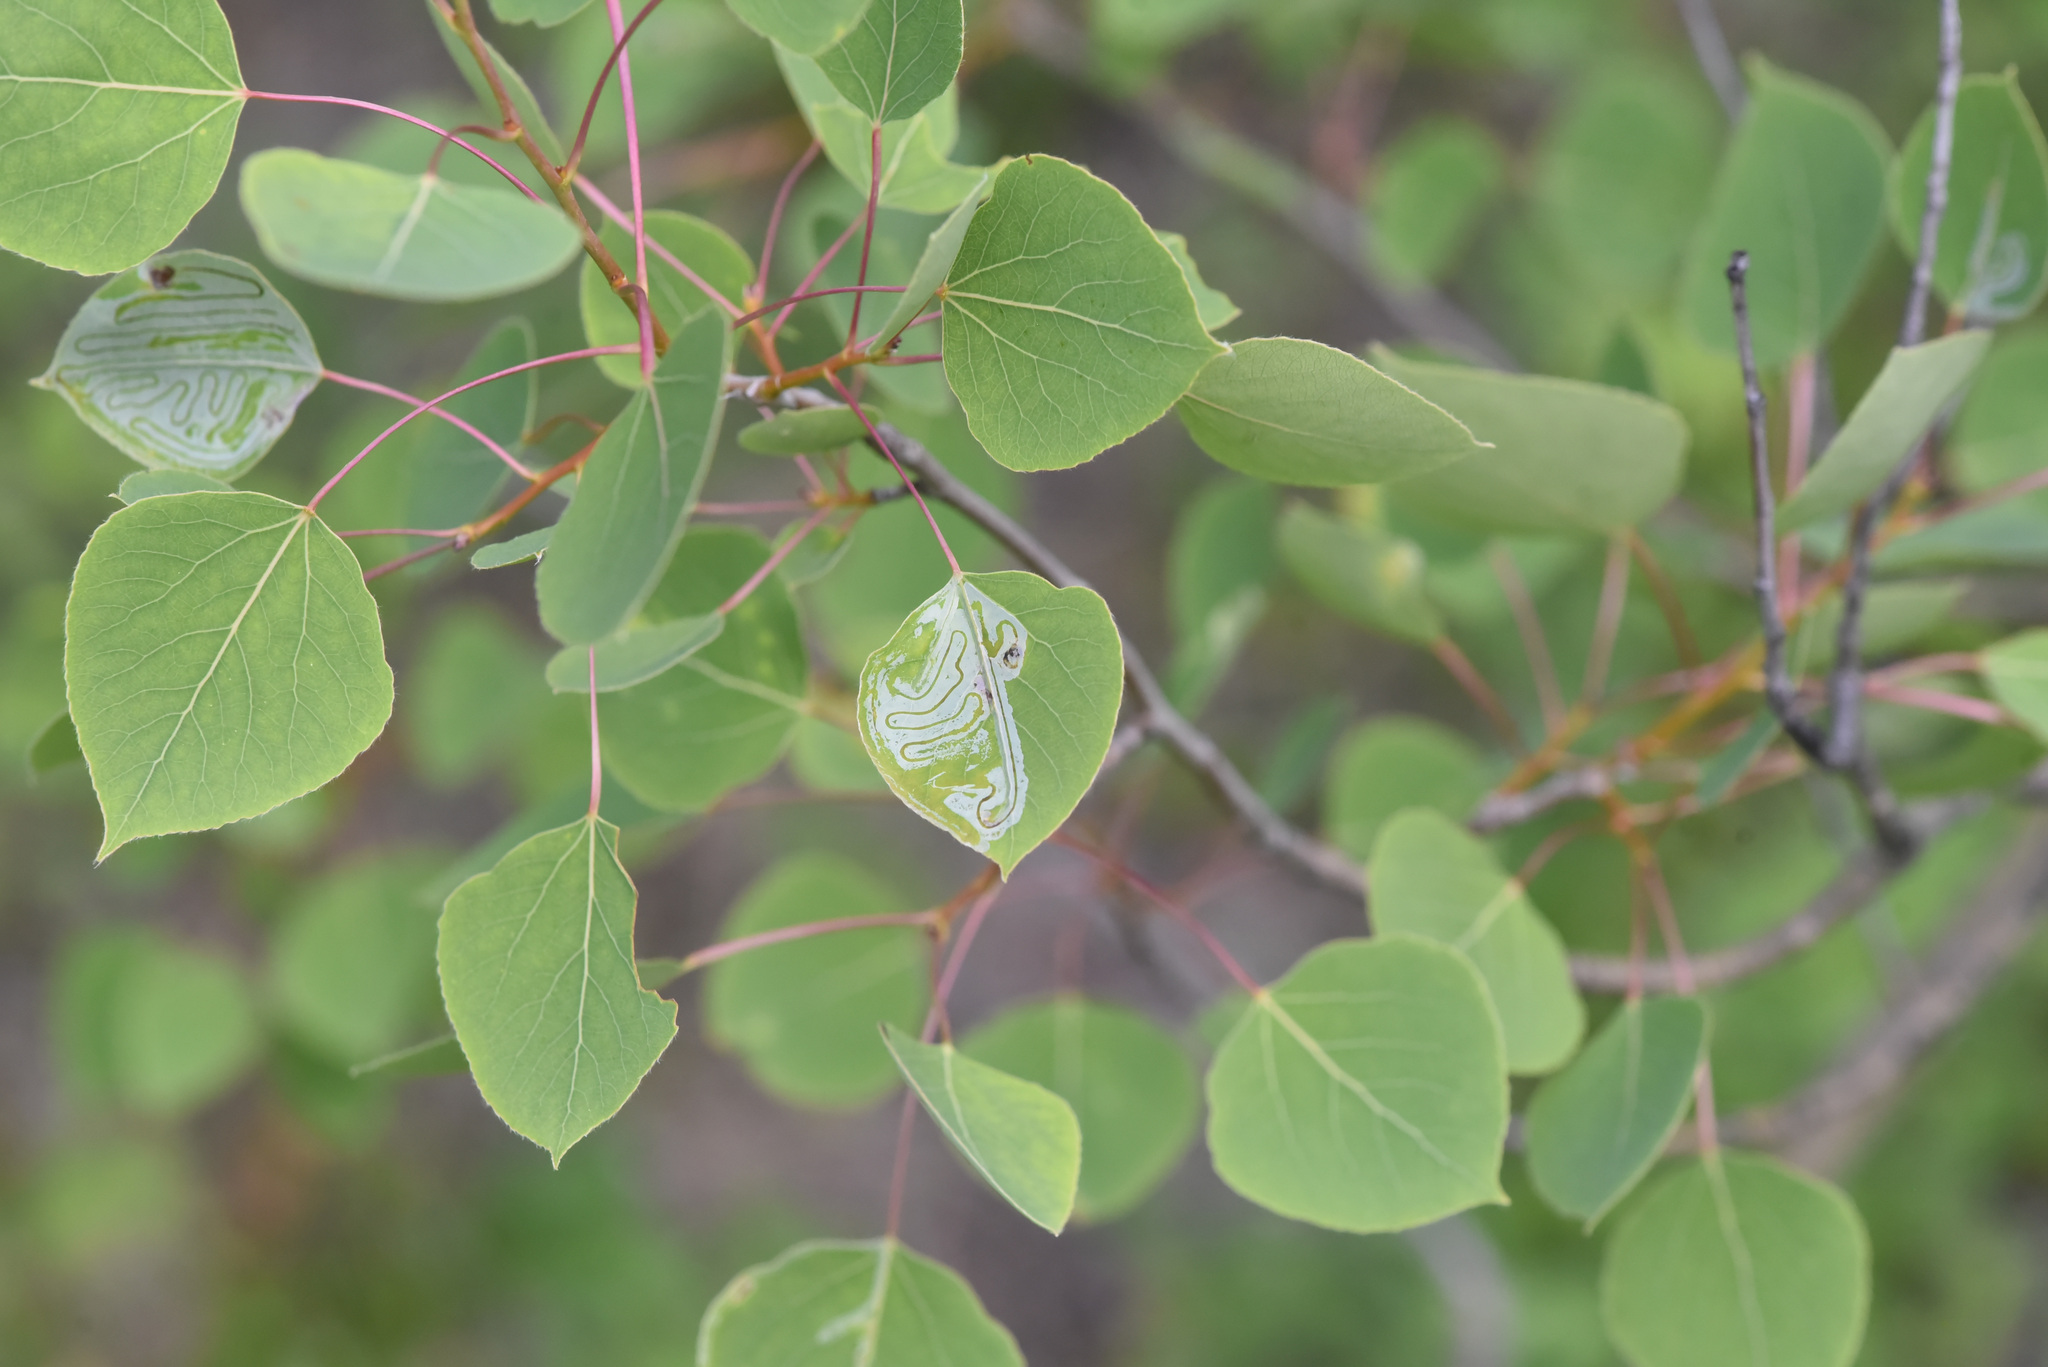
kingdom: Animalia
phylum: Arthropoda
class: Insecta
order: Lepidoptera
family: Gracillariidae
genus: Phyllocnistis
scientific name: Phyllocnistis populiella
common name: Aspen serpentine leafminer moth
